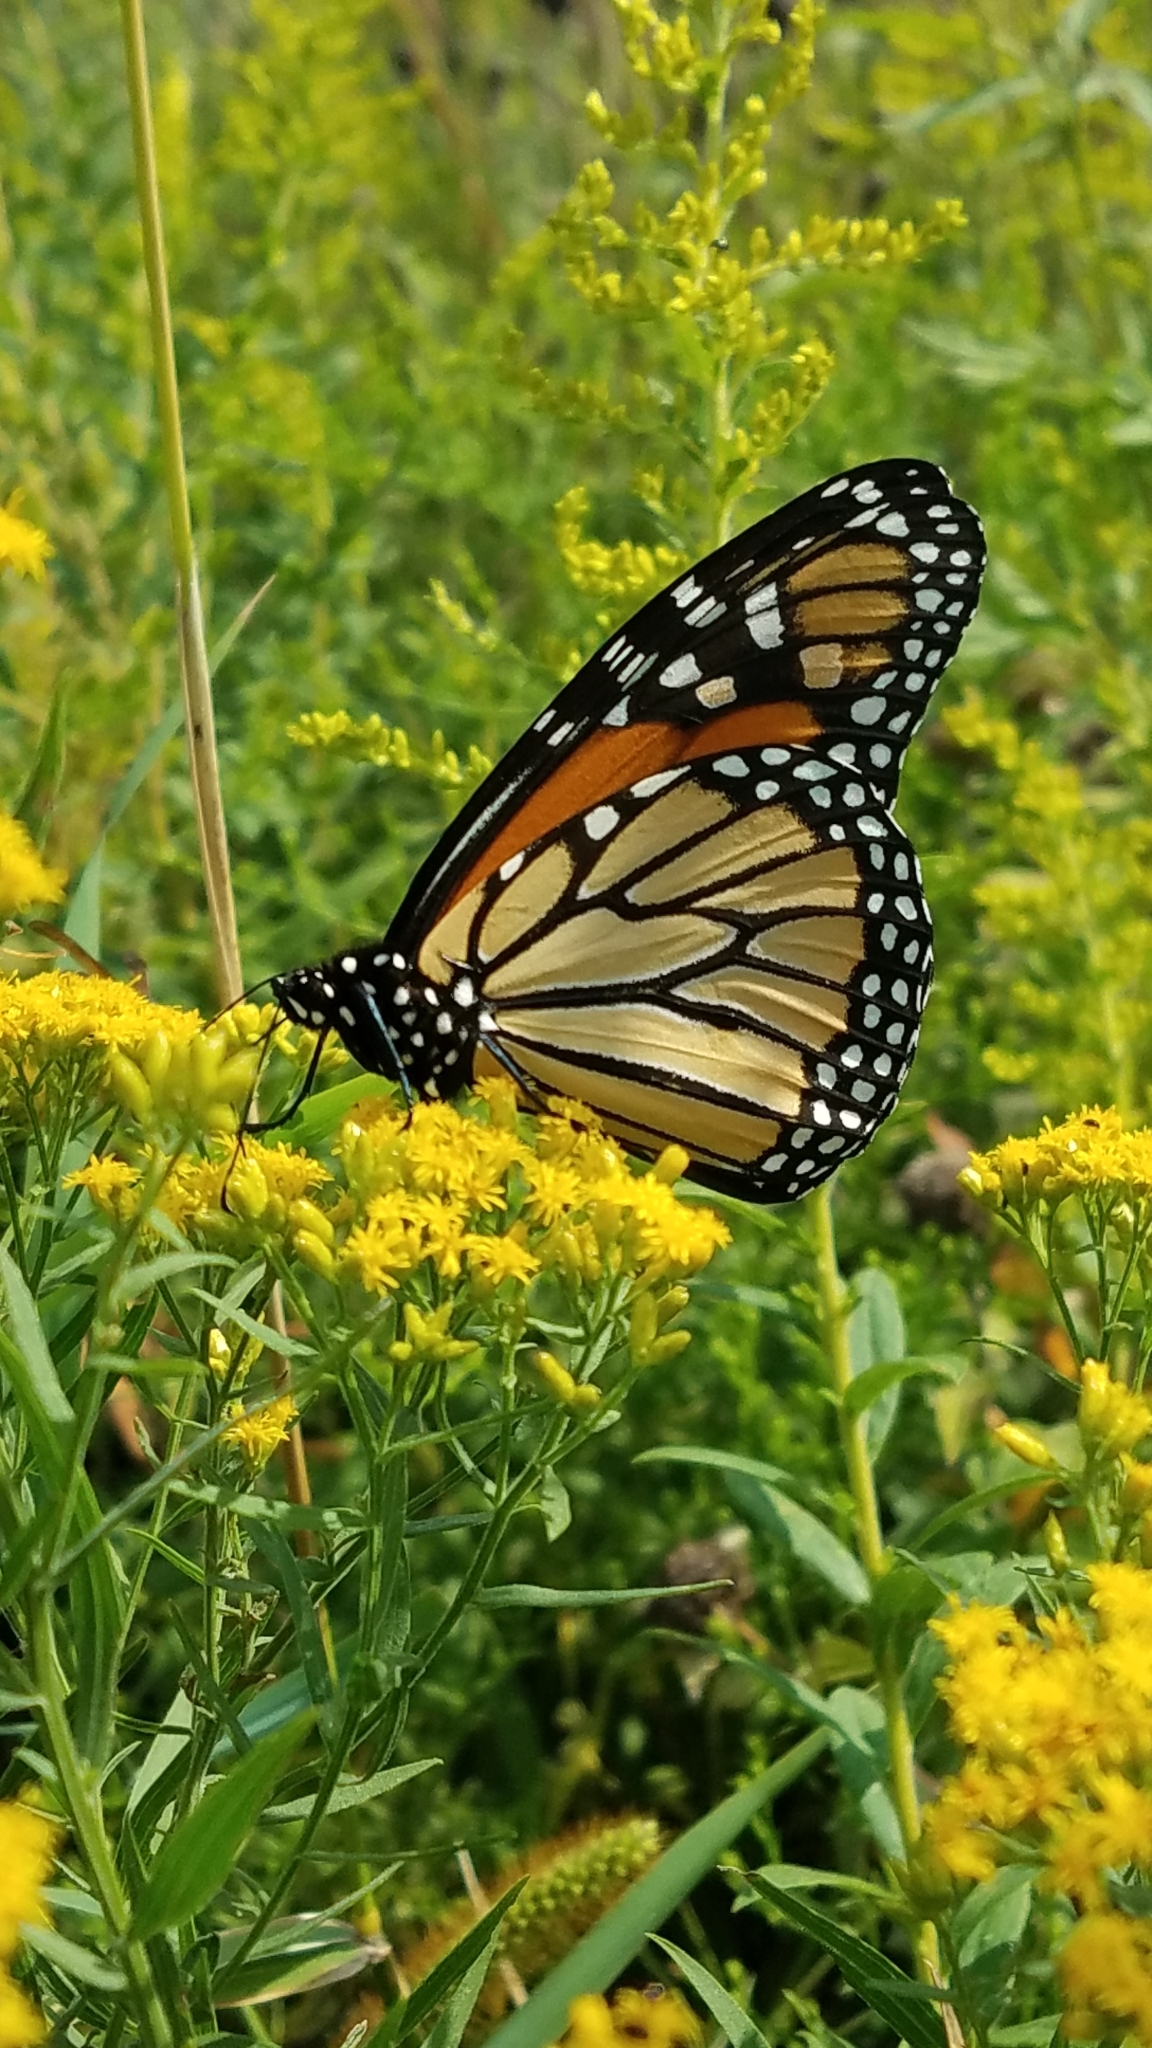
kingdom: Animalia
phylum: Arthropoda
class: Insecta
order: Lepidoptera
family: Nymphalidae
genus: Danaus
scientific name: Danaus plexippus
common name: Monarch
